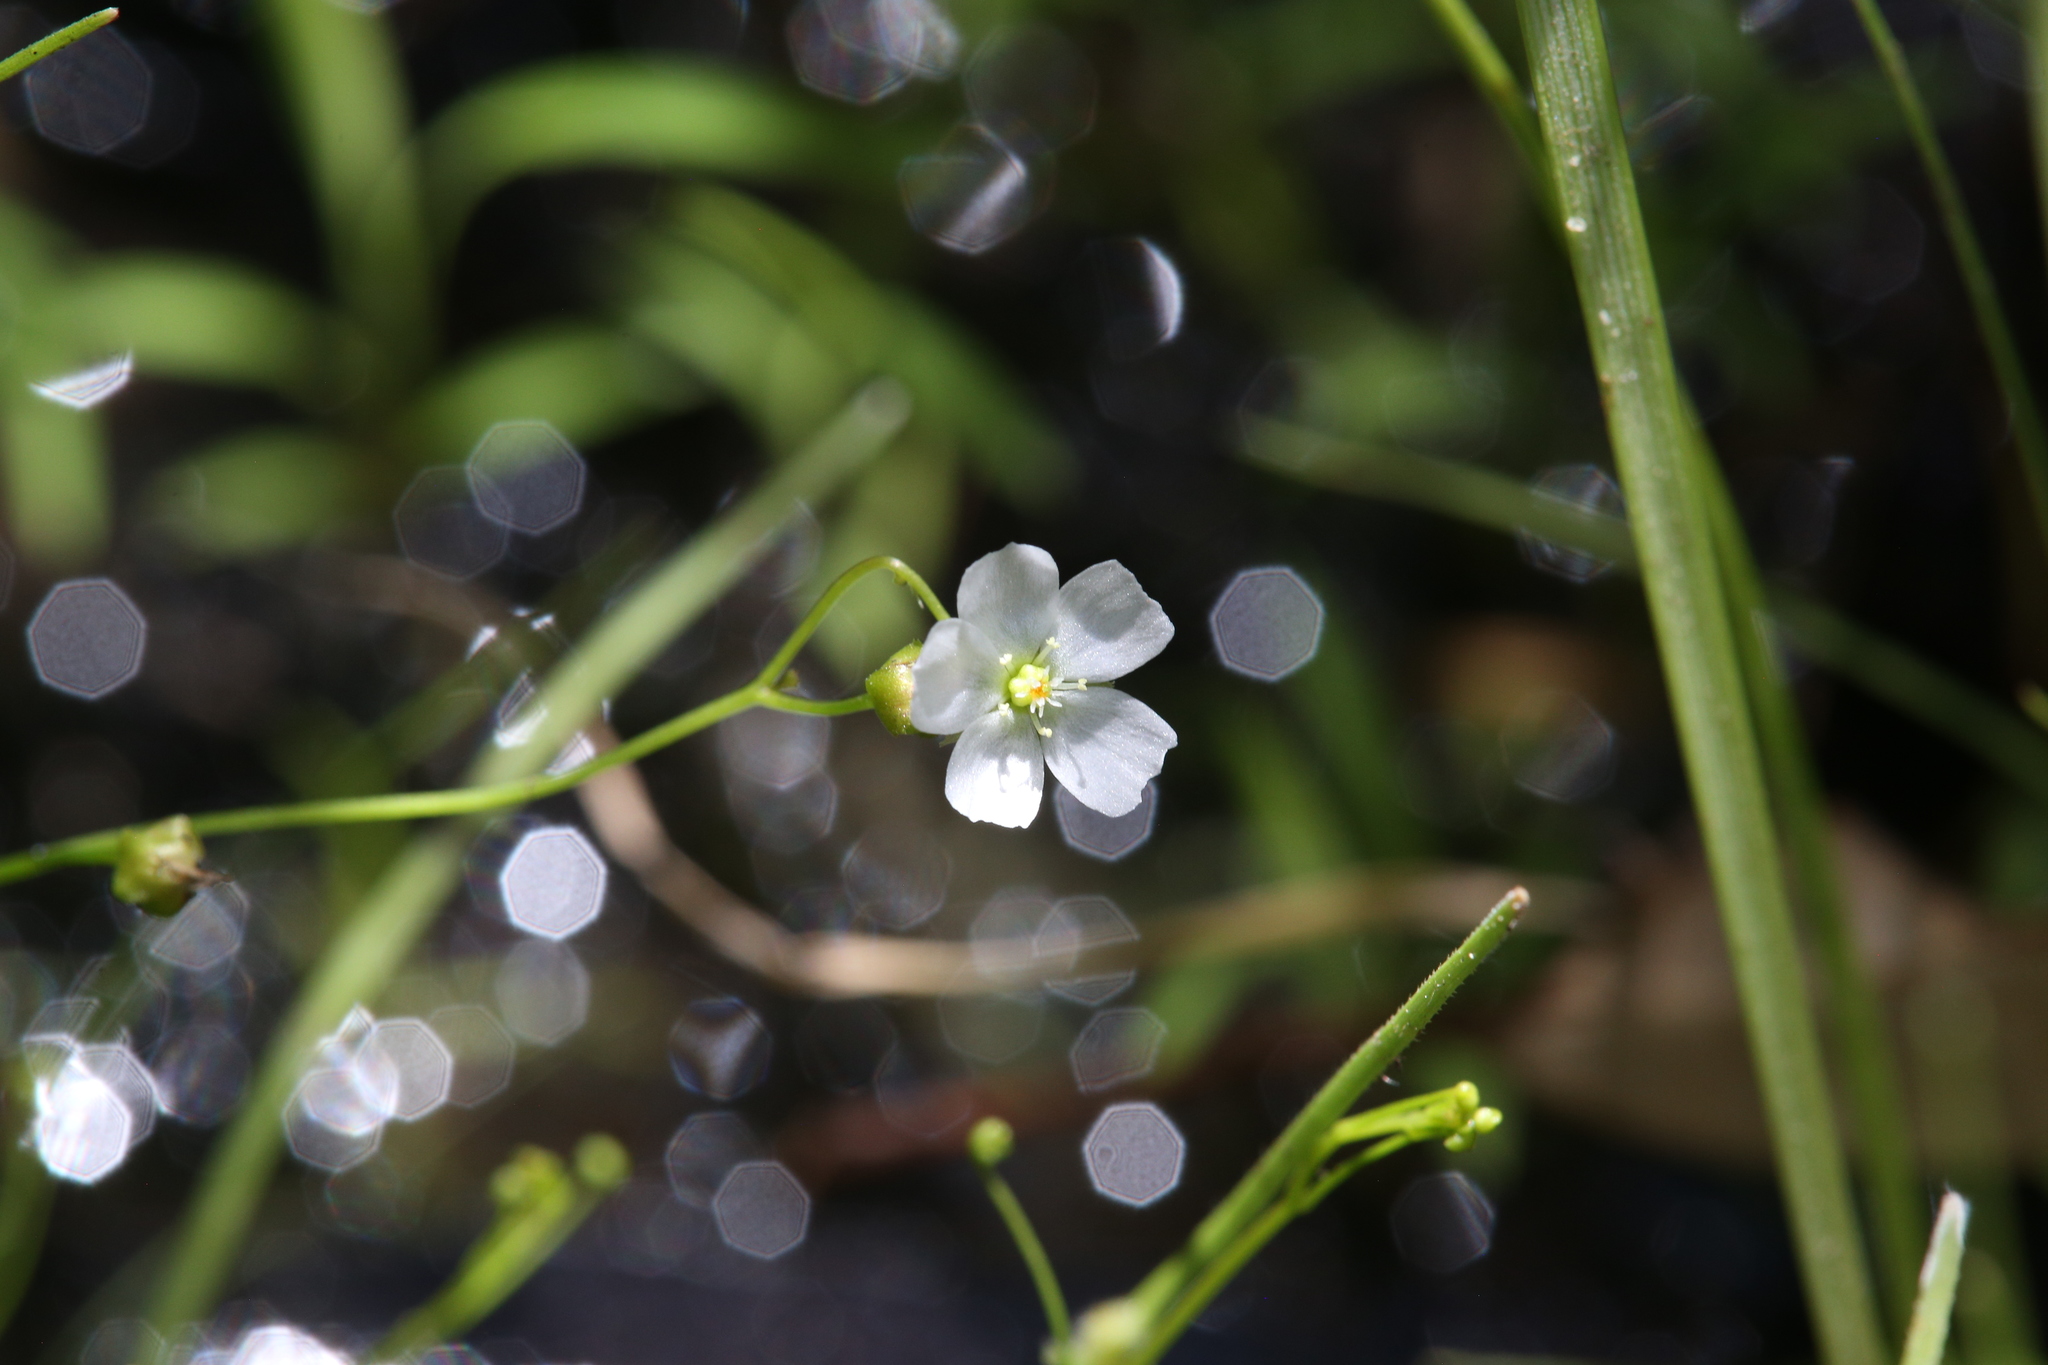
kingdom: Plantae
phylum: Tracheophyta
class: Magnoliopsida
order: Caryophyllales
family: Droseraceae
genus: Drosera
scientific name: Drosera peltata
